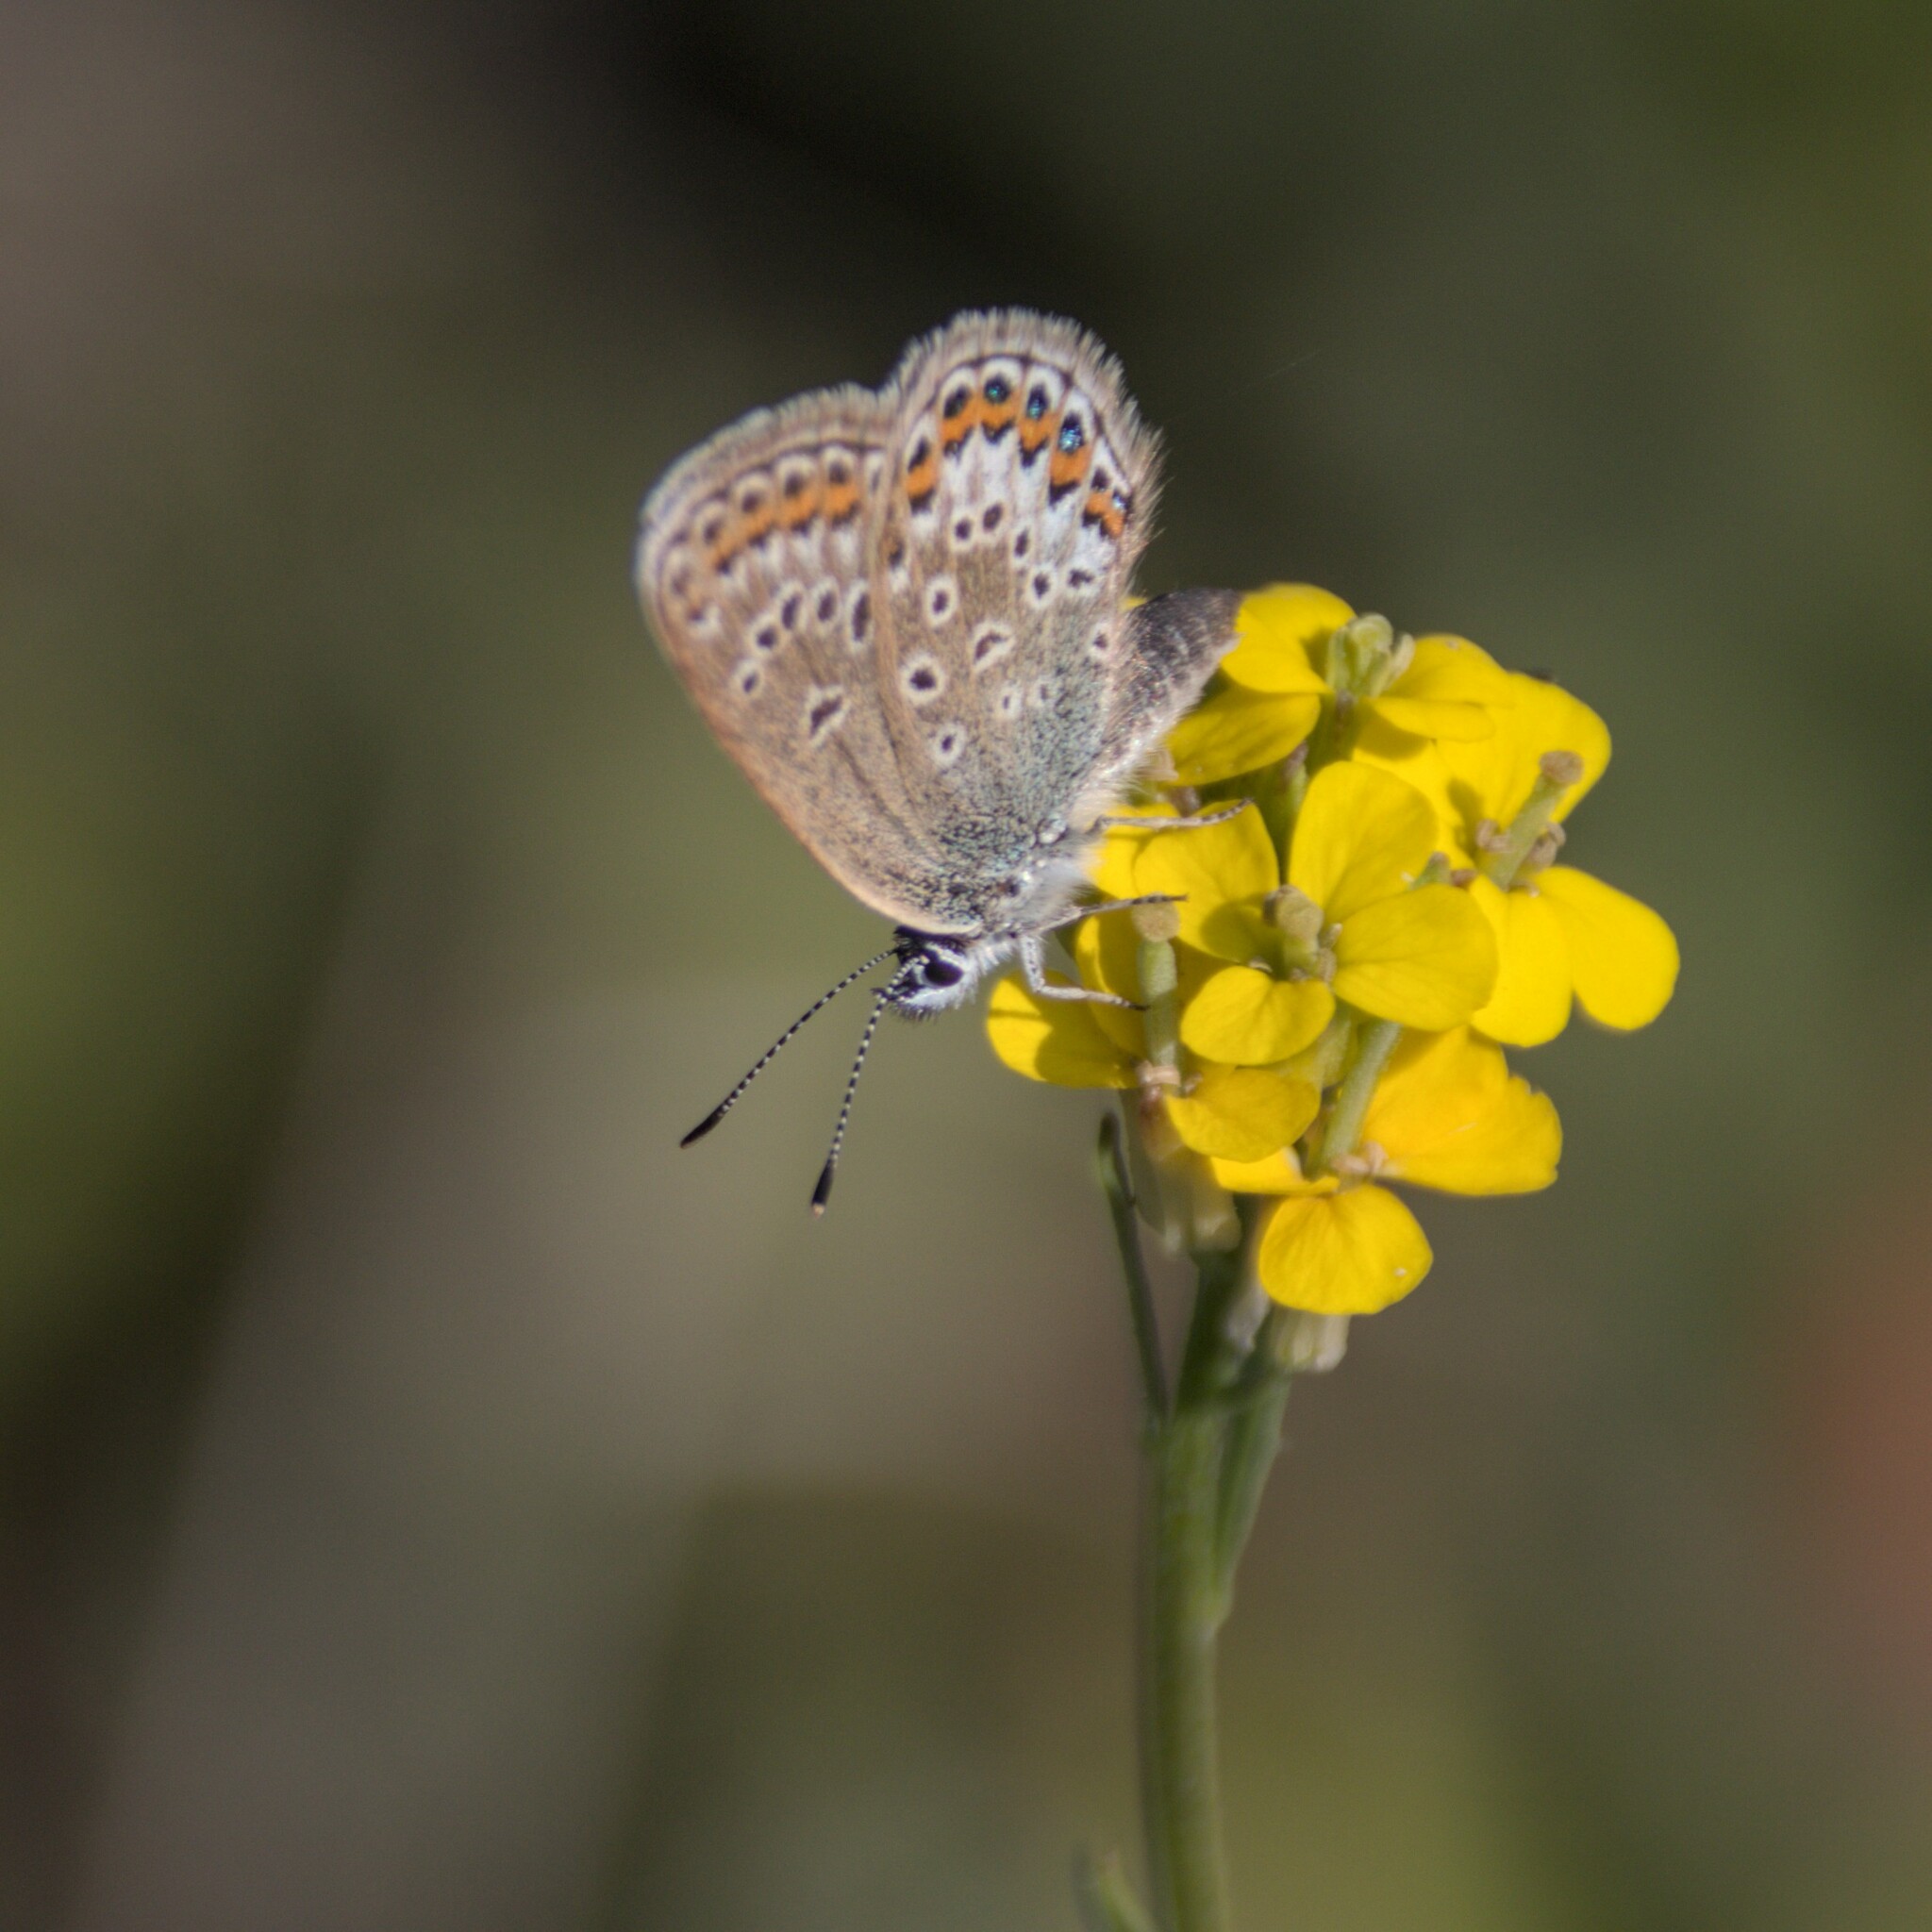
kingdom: Animalia
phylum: Arthropoda
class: Insecta
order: Lepidoptera
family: Lycaenidae
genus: Plebejus
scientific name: Plebejus argus
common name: Silver-studded blue
